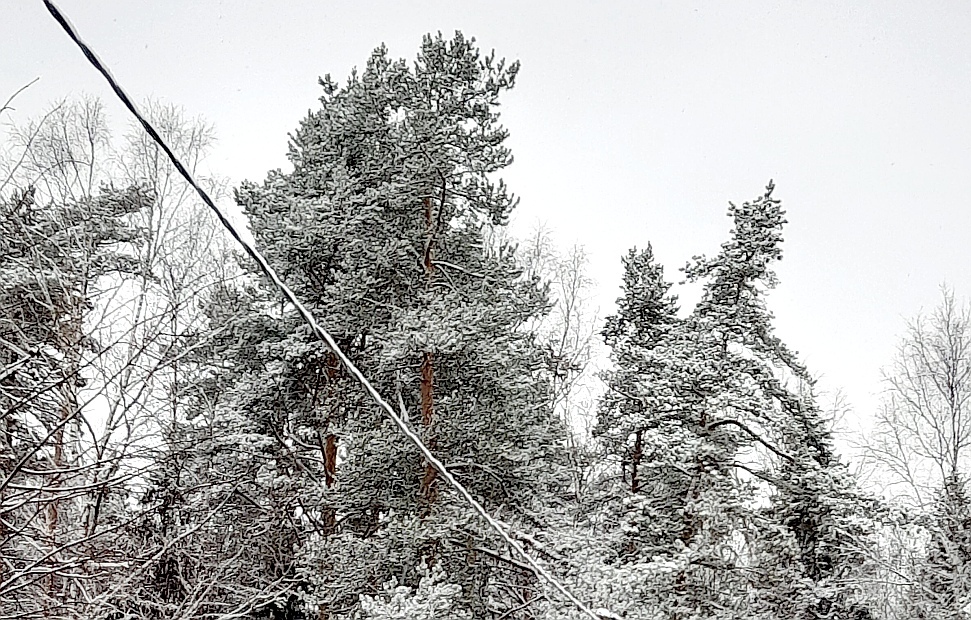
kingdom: Plantae
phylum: Tracheophyta
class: Pinopsida
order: Pinales
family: Pinaceae
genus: Pinus
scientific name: Pinus sylvestris
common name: Scots pine
